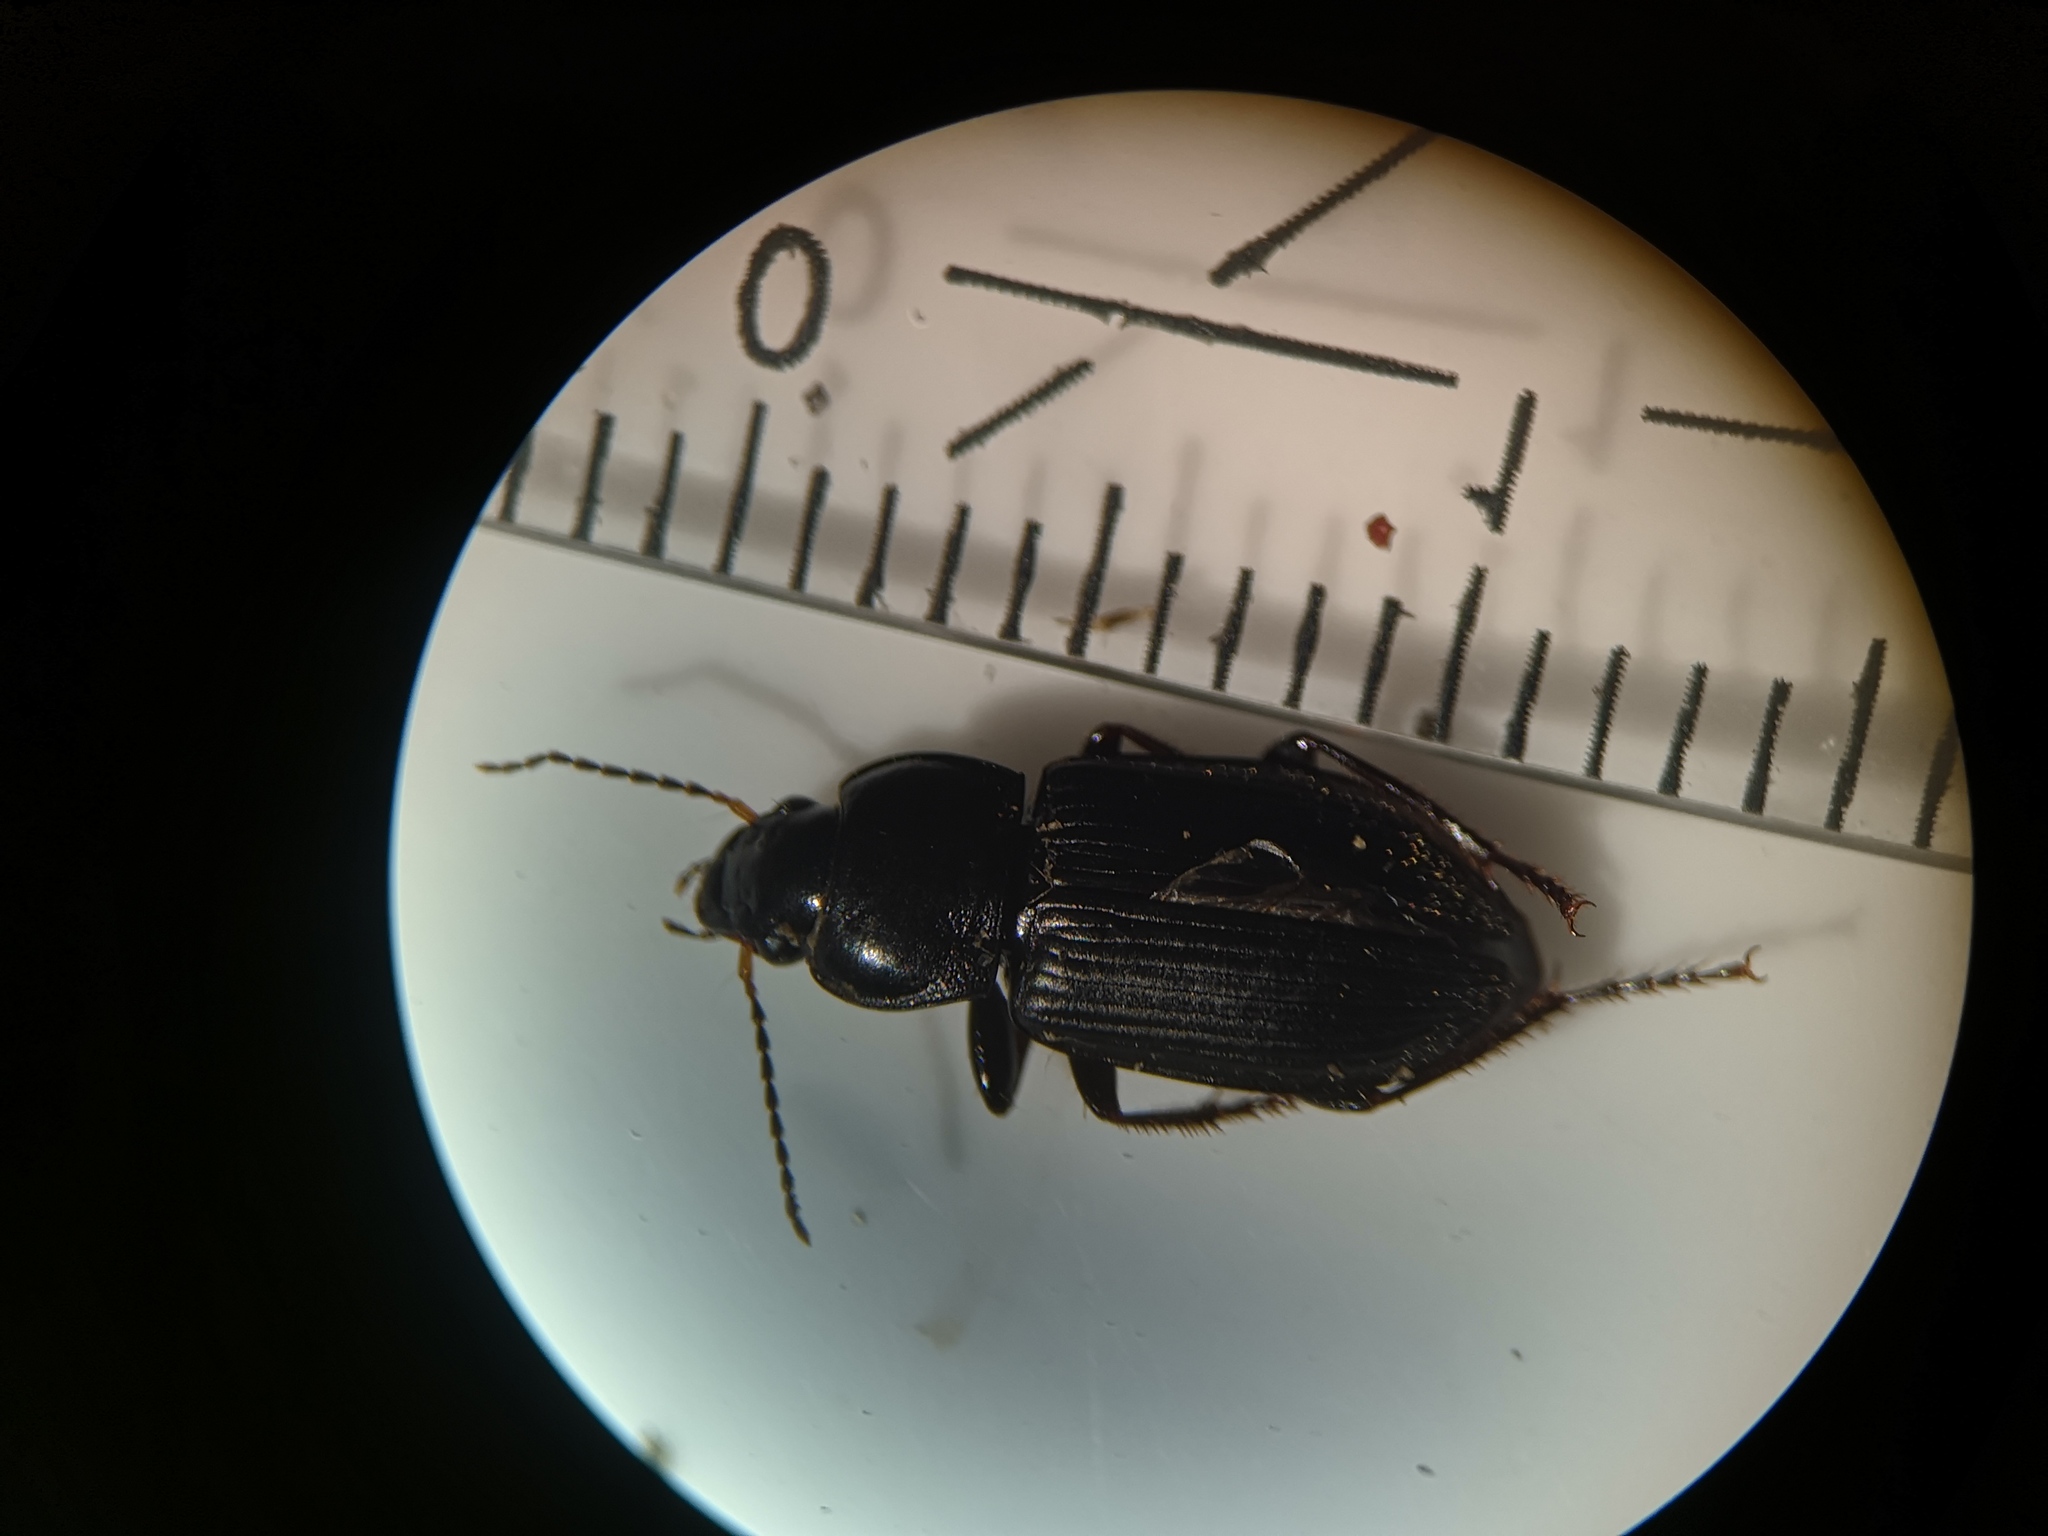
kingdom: Animalia
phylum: Arthropoda
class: Insecta
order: Coleoptera
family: Carabidae
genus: Anisodactylus
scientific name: Anisodactylus binotatus
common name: Two-marked harp ground beetle
